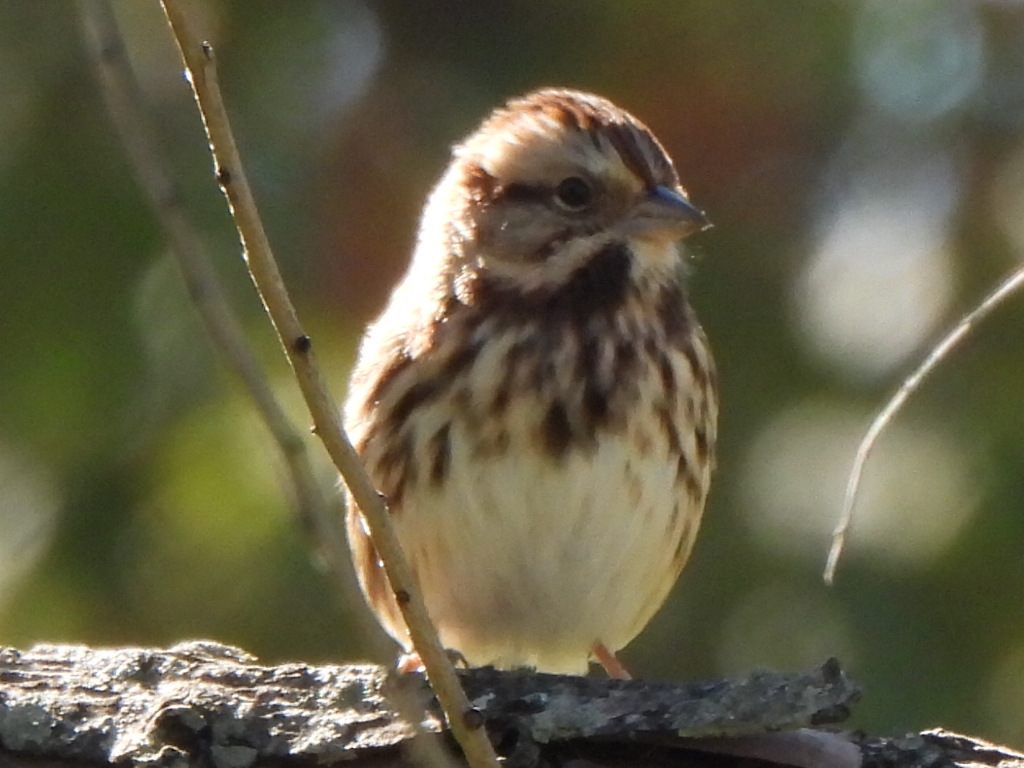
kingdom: Animalia
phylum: Chordata
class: Aves
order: Passeriformes
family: Passerellidae
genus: Melospiza
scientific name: Melospiza melodia
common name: Song sparrow
